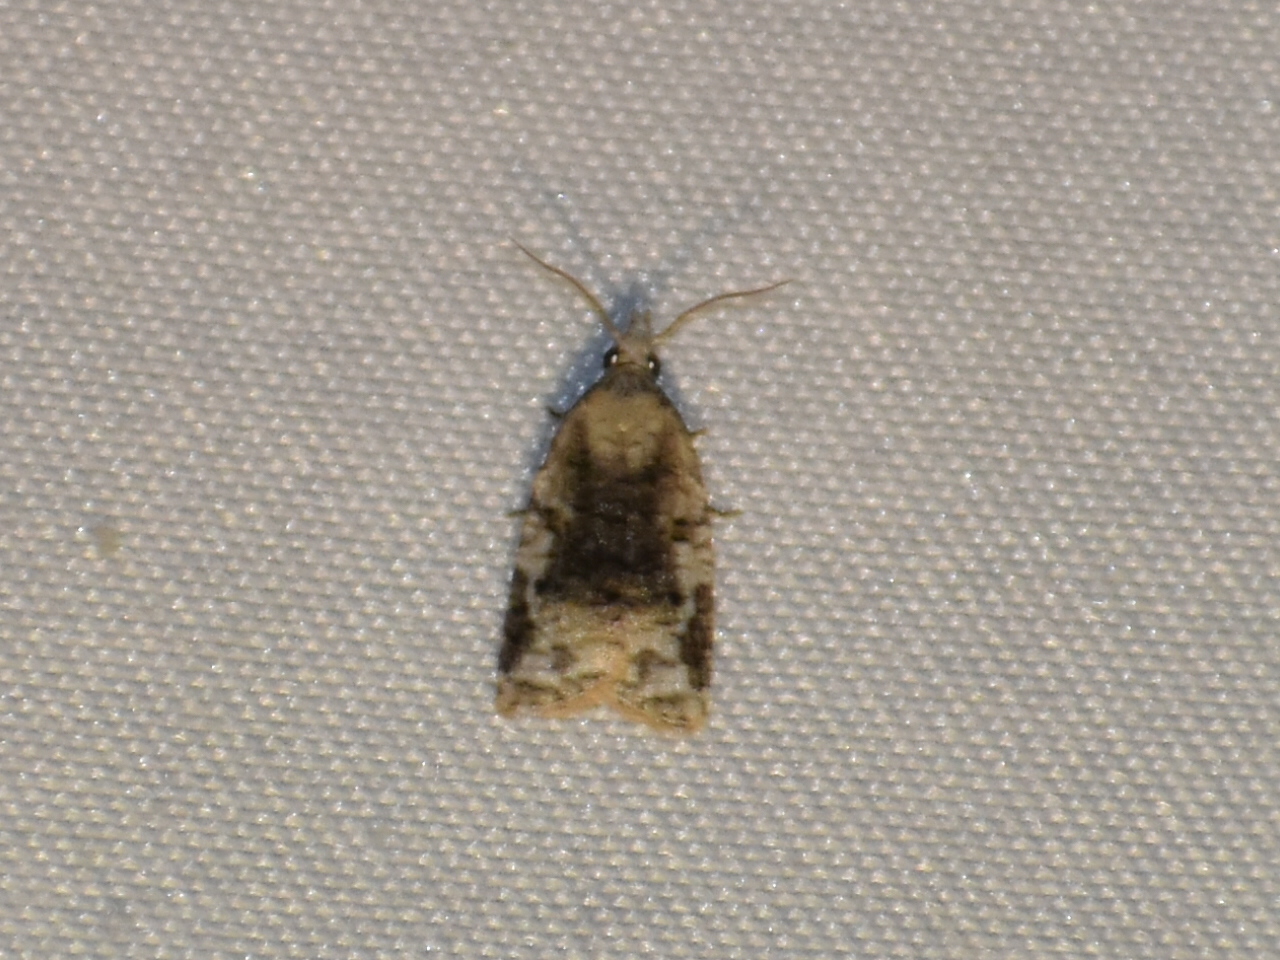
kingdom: Animalia
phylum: Arthropoda
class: Insecta
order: Lepidoptera
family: Tortricidae
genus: Platynota
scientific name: Platynota exasperatana
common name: Exasperating platynota moth
